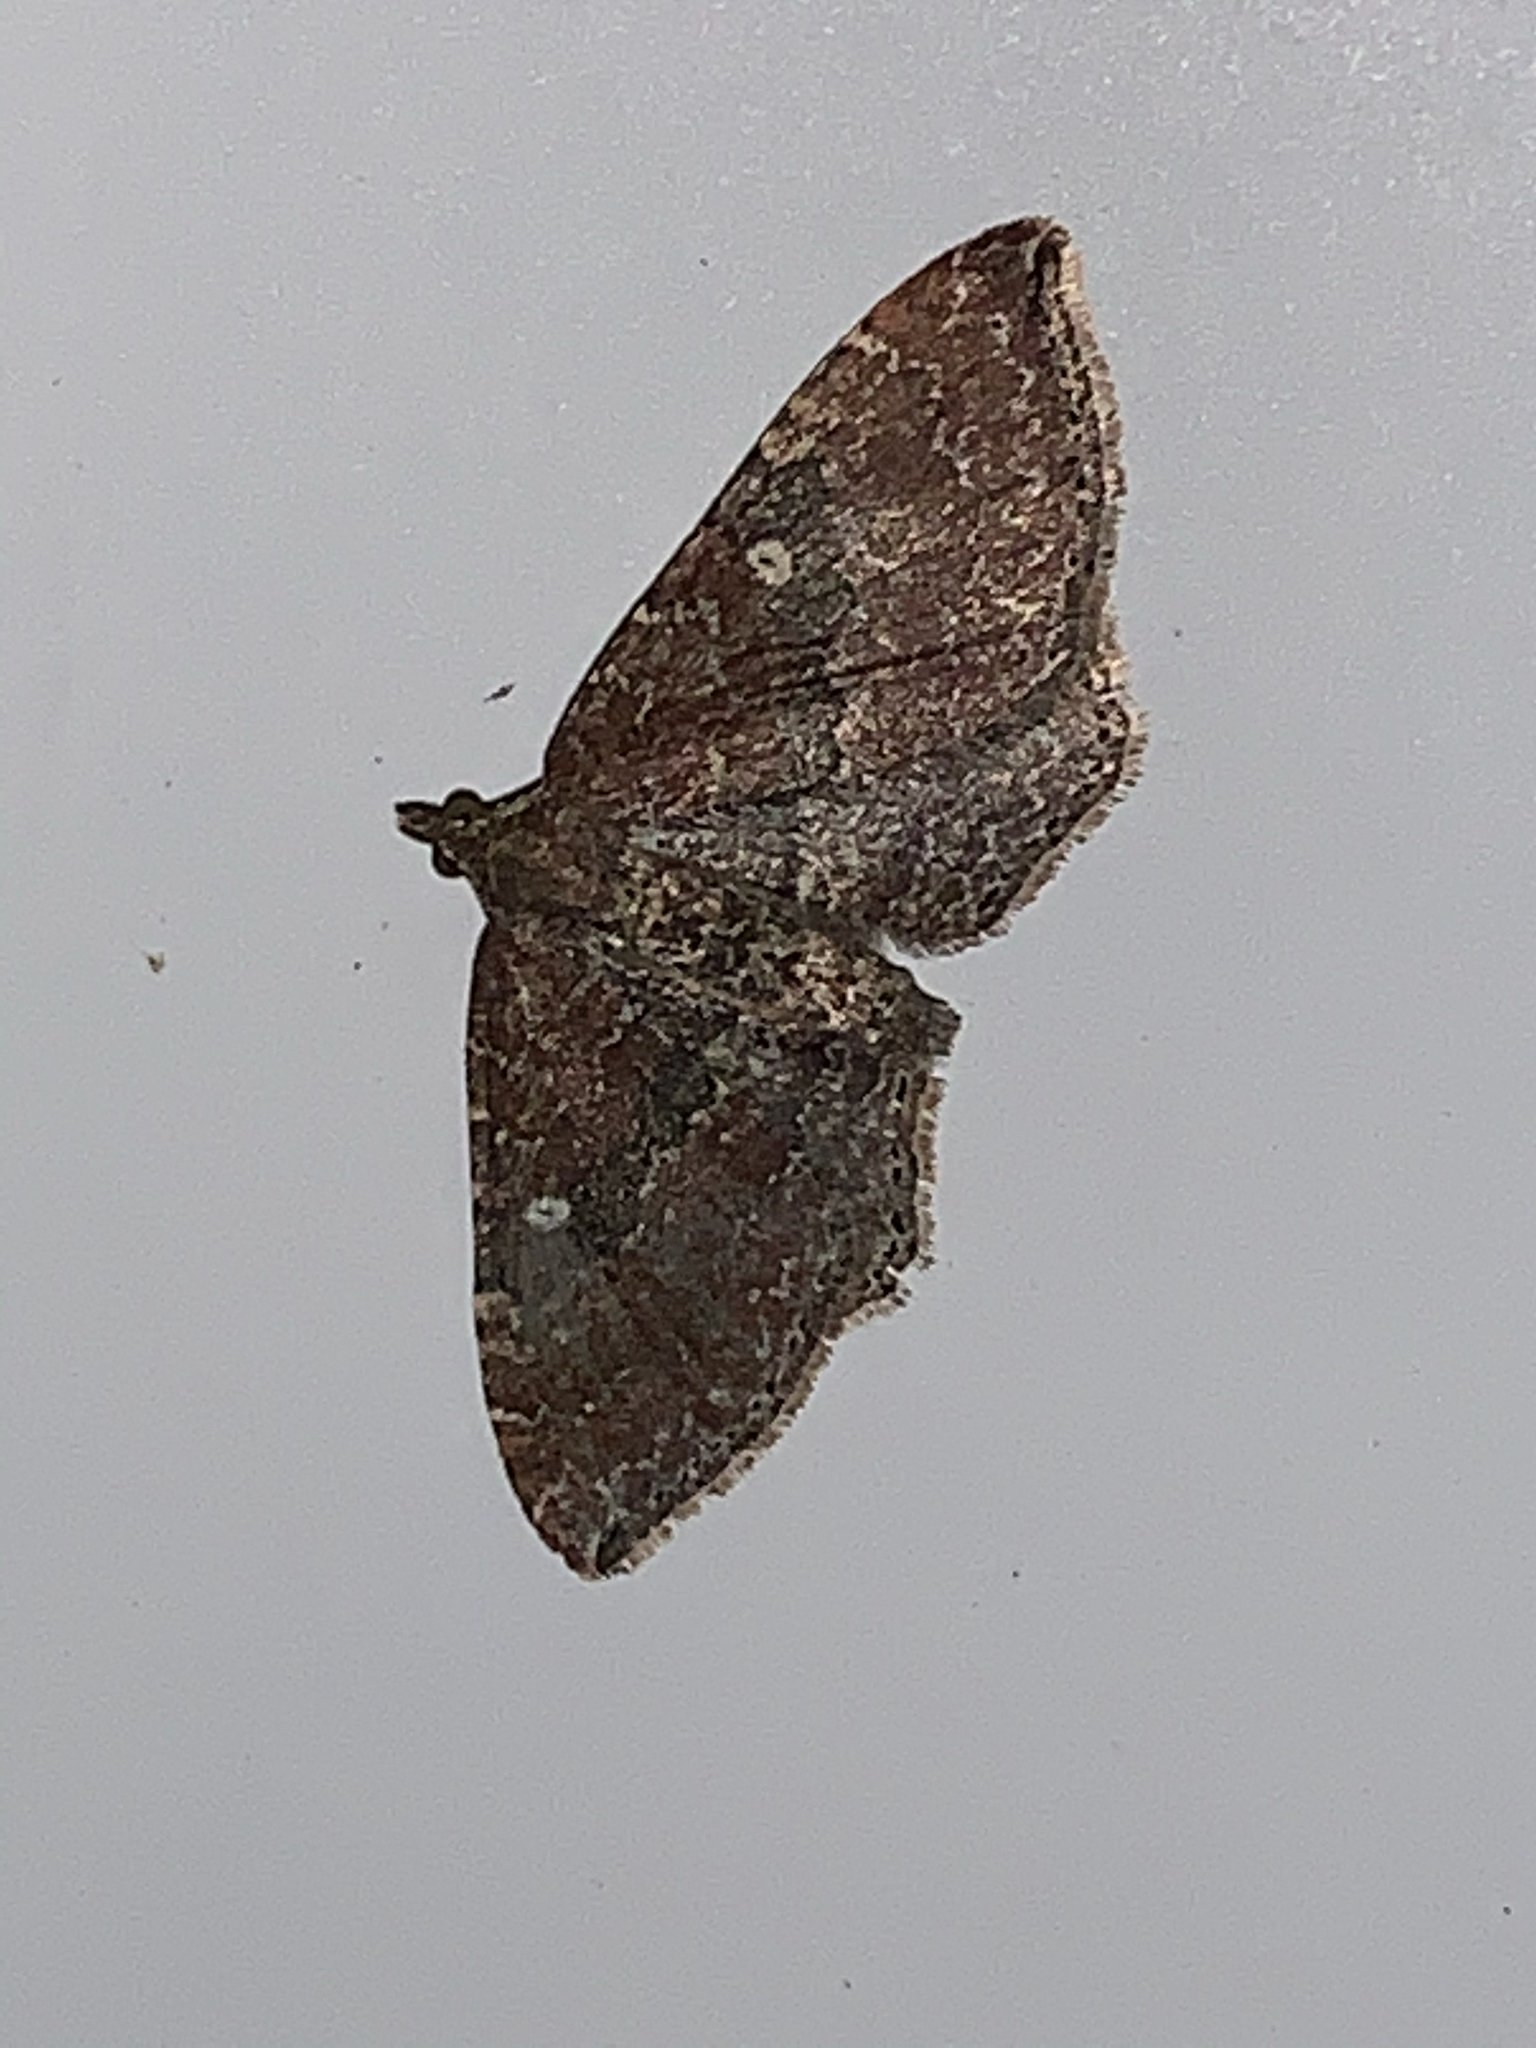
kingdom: Animalia
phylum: Arthropoda
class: Insecta
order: Lepidoptera
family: Geometridae
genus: Orthonama
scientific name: Orthonama obstipata
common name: The gem
